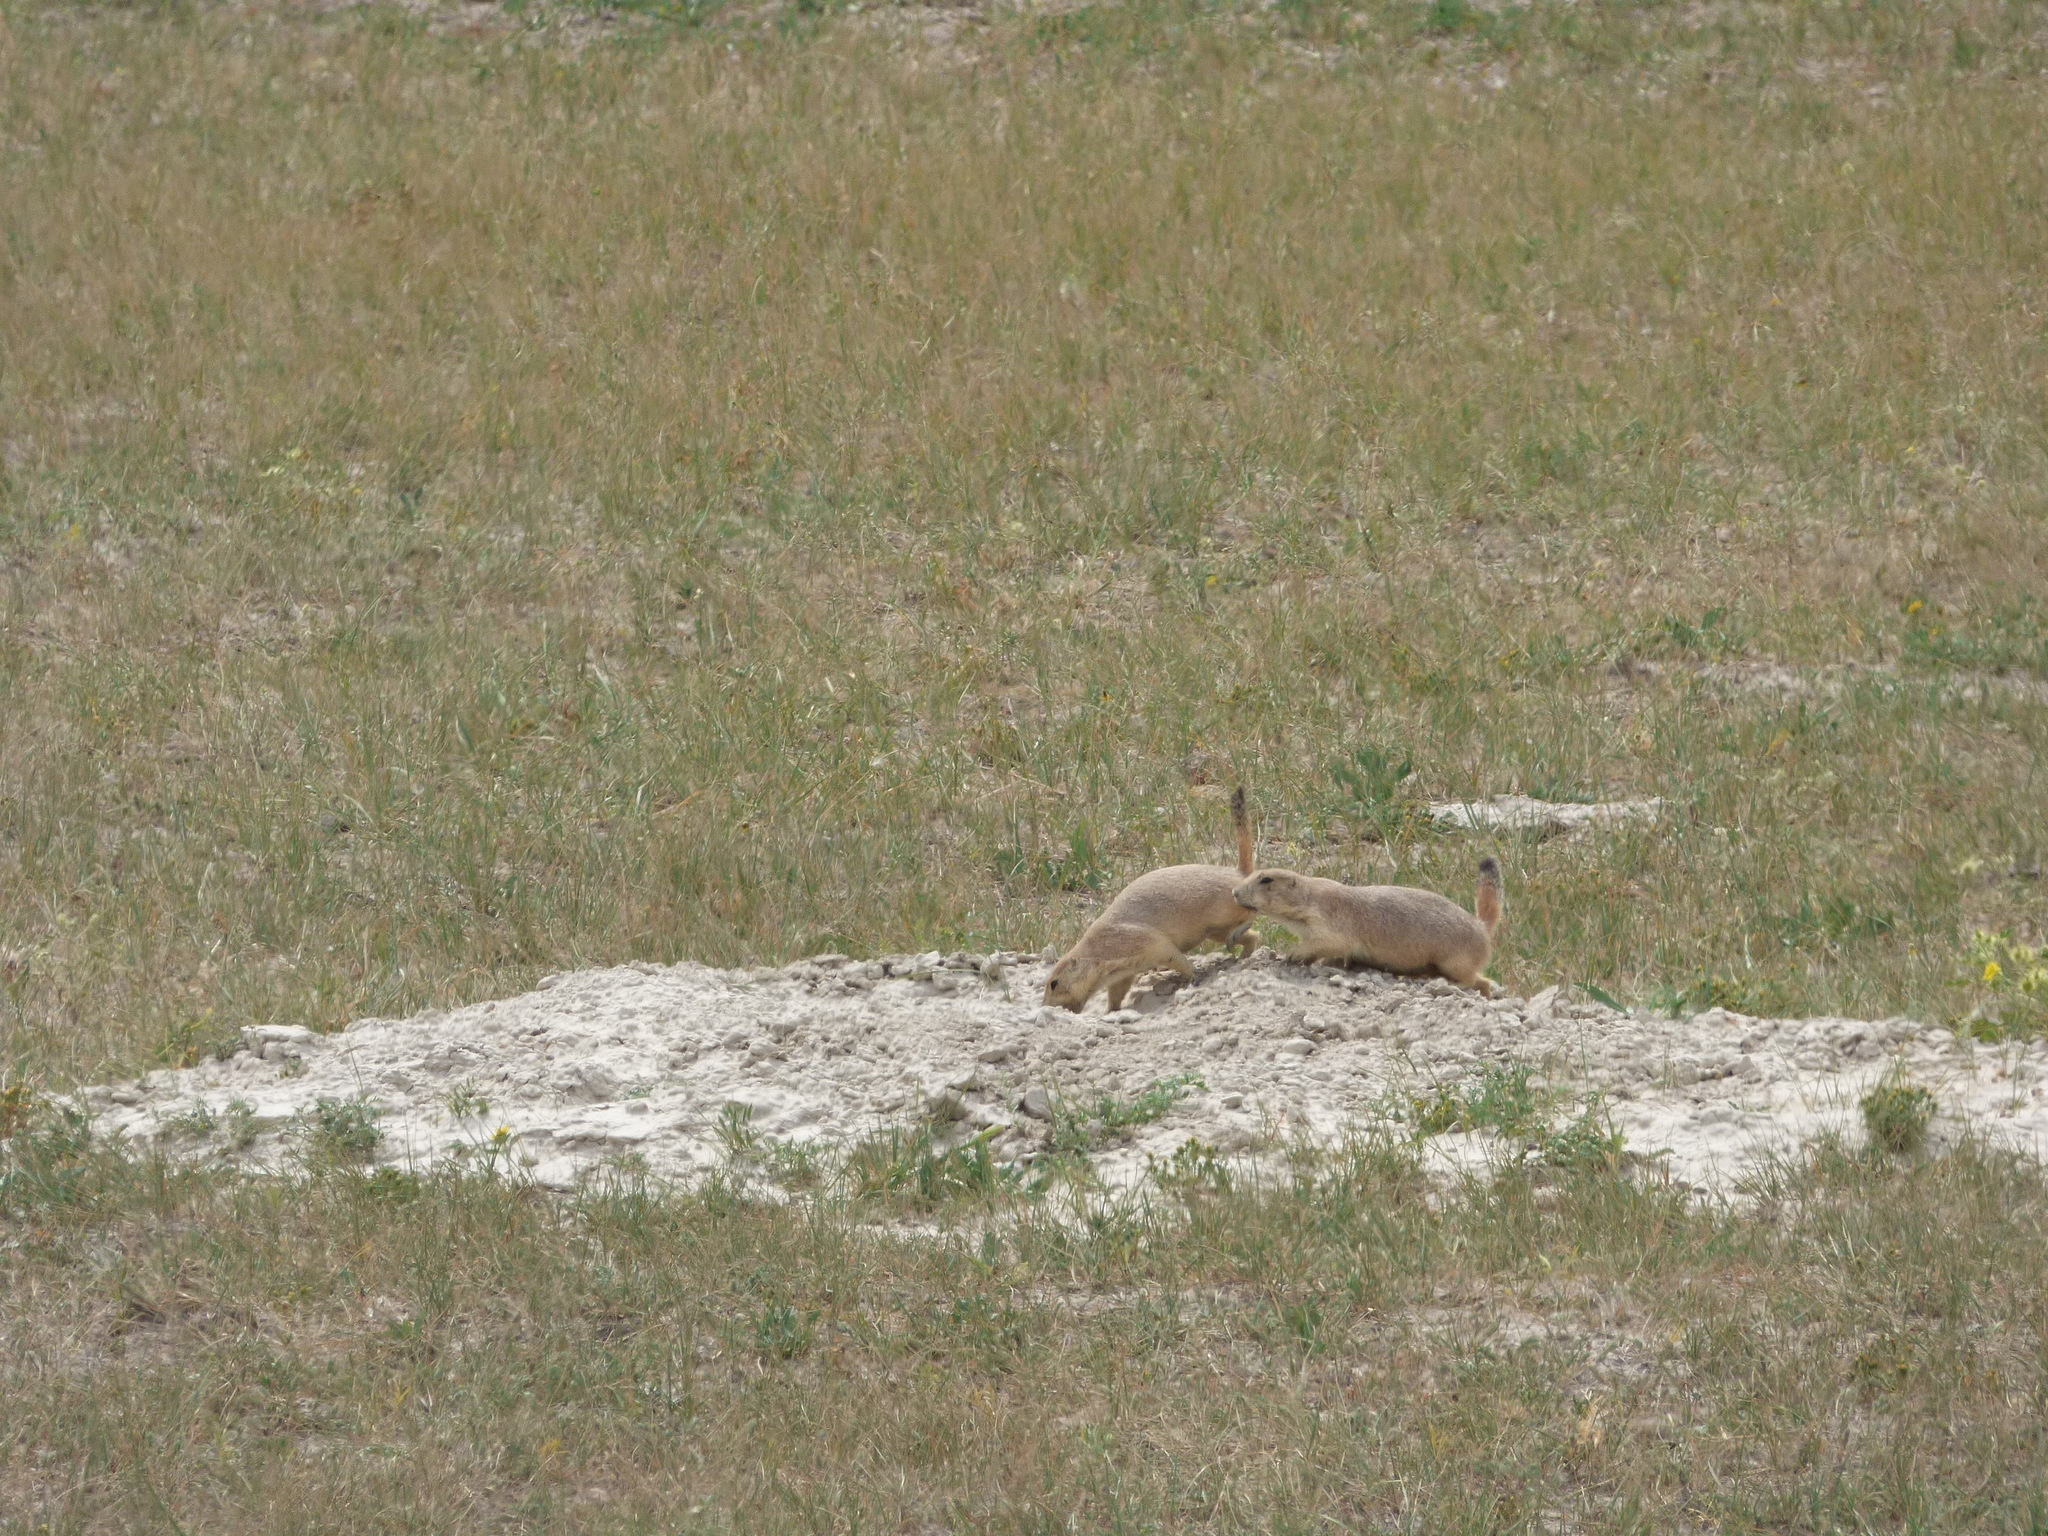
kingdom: Animalia
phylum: Chordata
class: Mammalia
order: Rodentia
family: Sciuridae
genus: Cynomys
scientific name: Cynomys ludovicianus
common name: Black-tailed prairie dog
